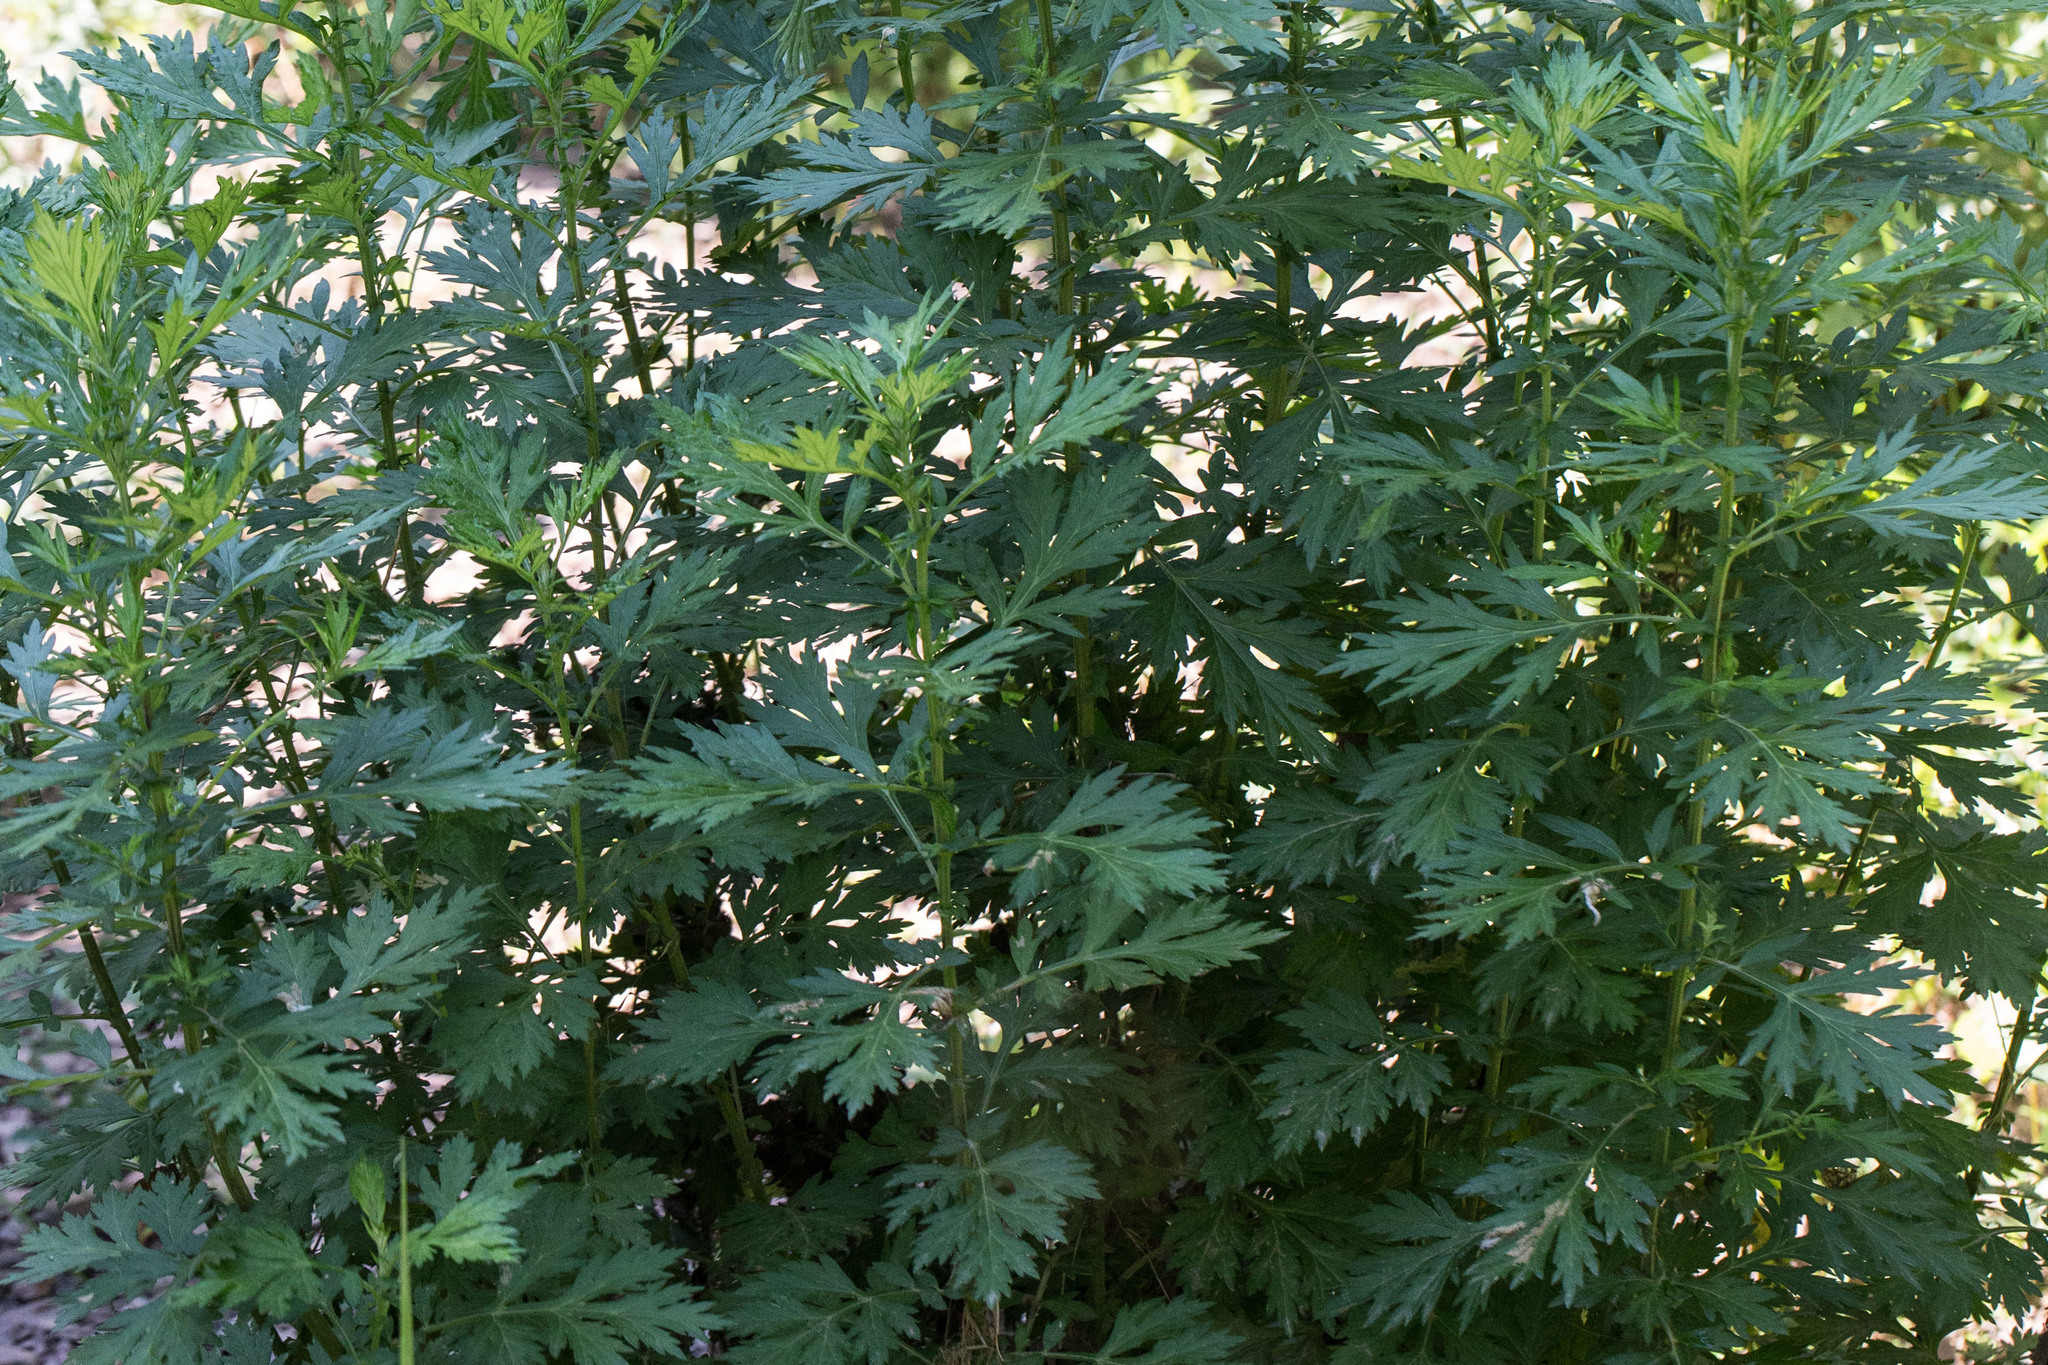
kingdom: Plantae
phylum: Tracheophyta
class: Magnoliopsida
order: Asterales
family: Asteraceae
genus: Artemisia
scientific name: Artemisia vulgaris
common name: Mugwort
